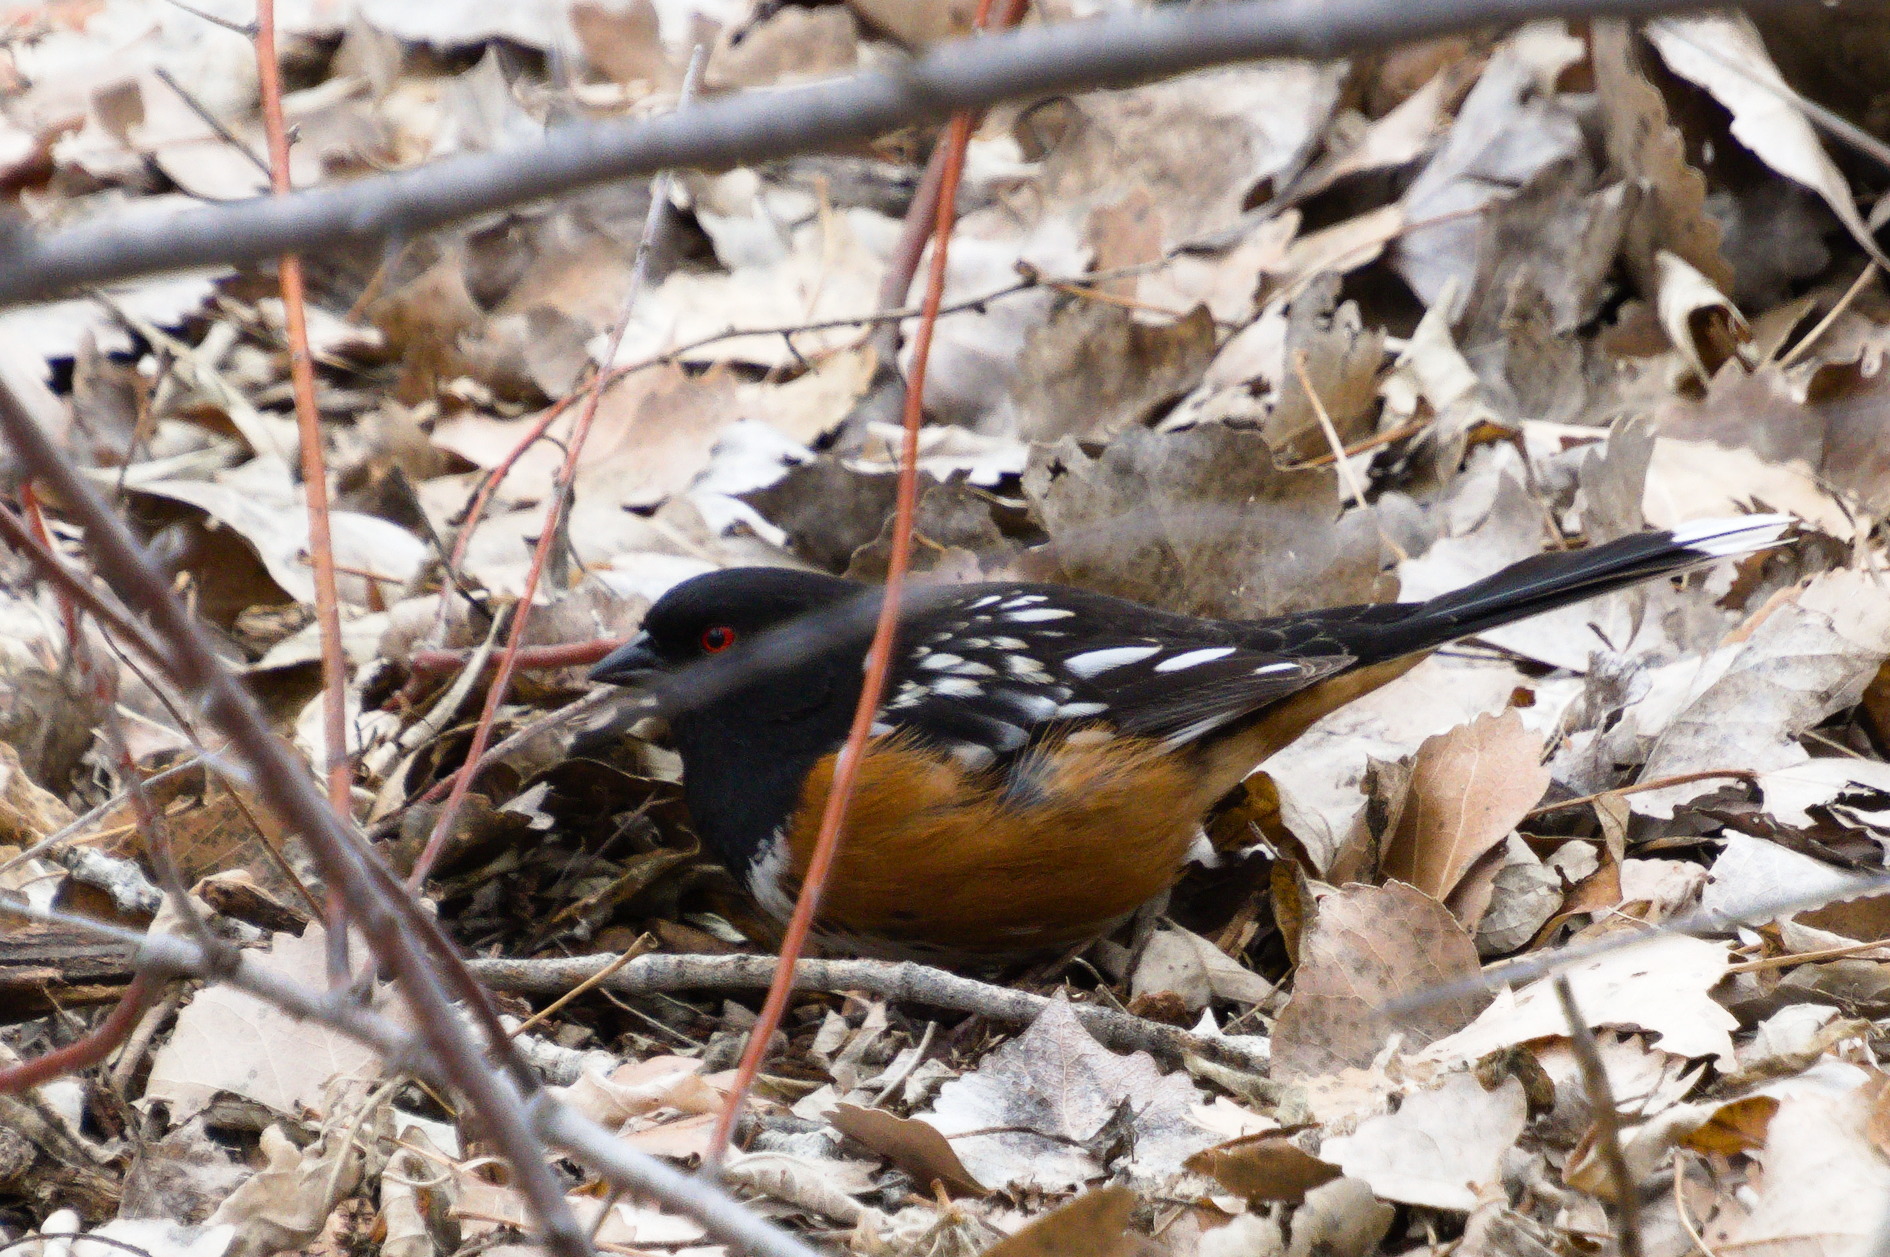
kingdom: Animalia
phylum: Chordata
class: Aves
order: Passeriformes
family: Passerellidae
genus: Pipilo
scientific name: Pipilo maculatus
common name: Spotted towhee
